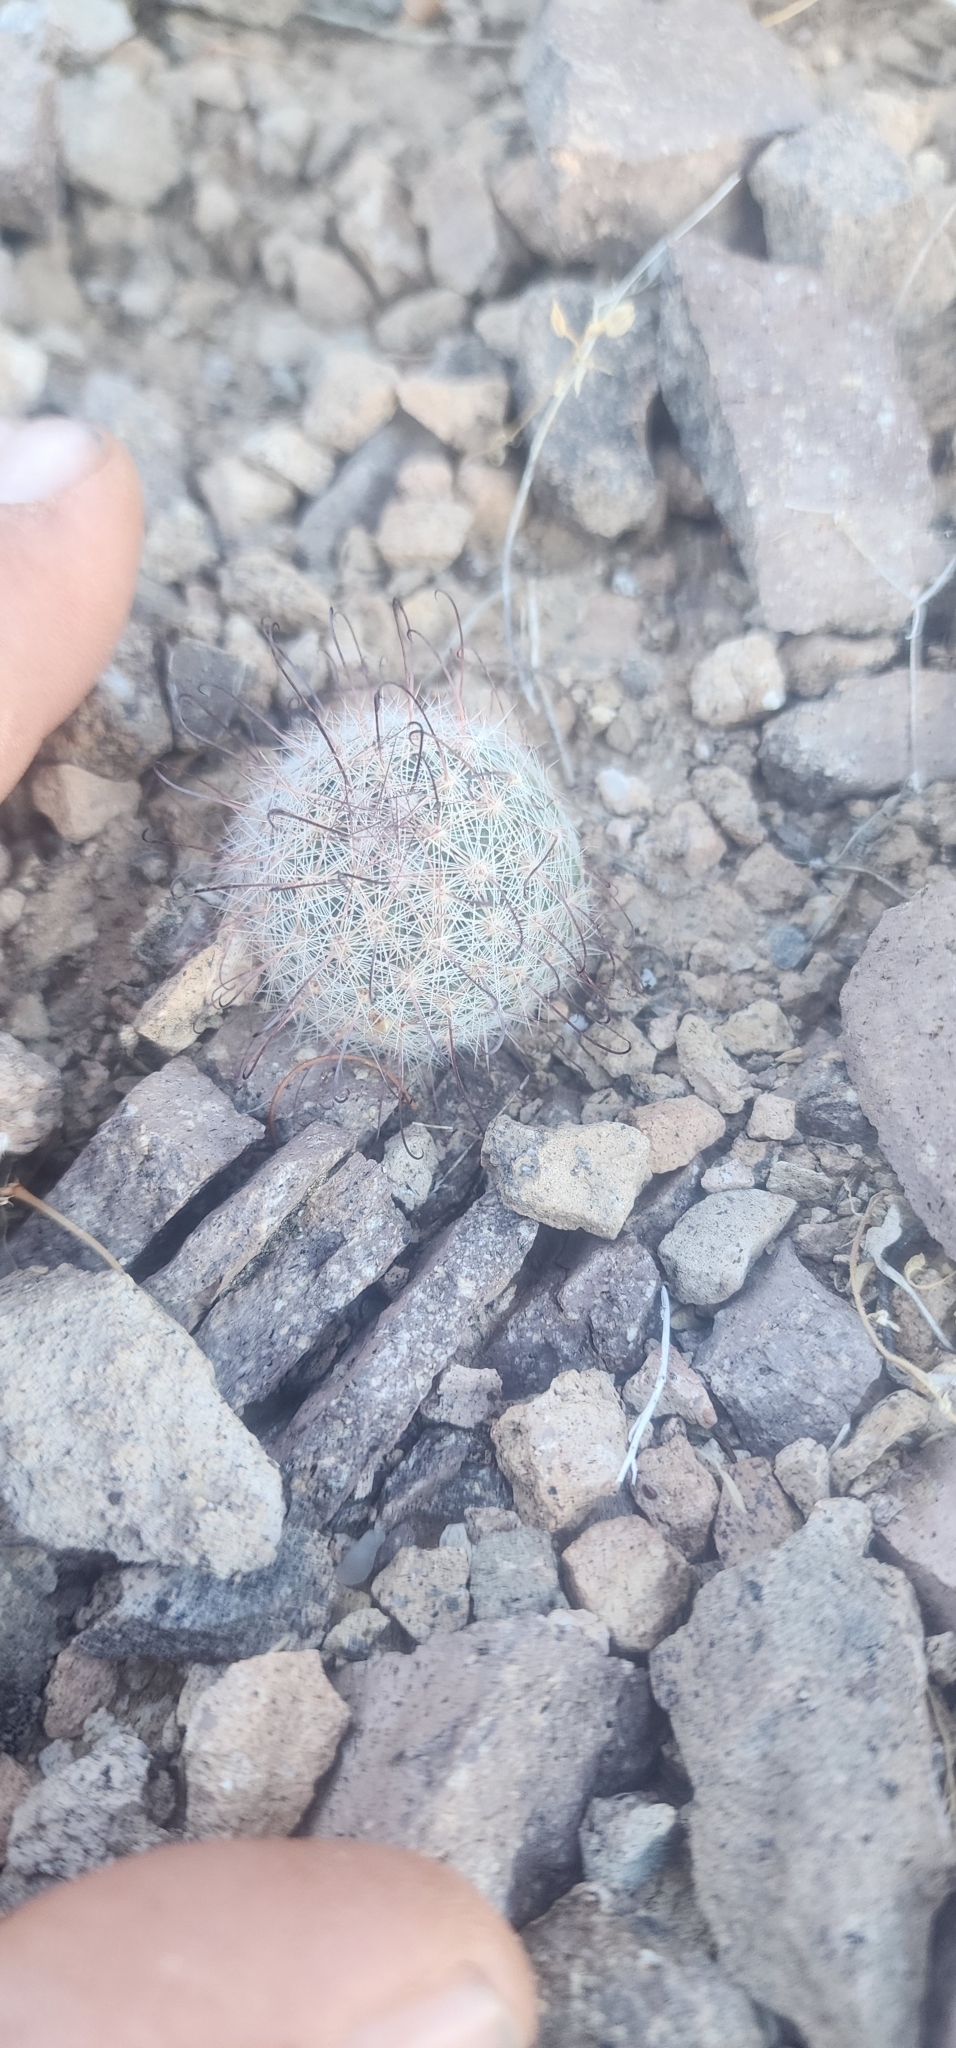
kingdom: Plantae
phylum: Tracheophyta
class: Magnoliopsida
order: Caryophyllales
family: Cactaceae
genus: Cochemiea
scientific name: Cochemiea grahamii
